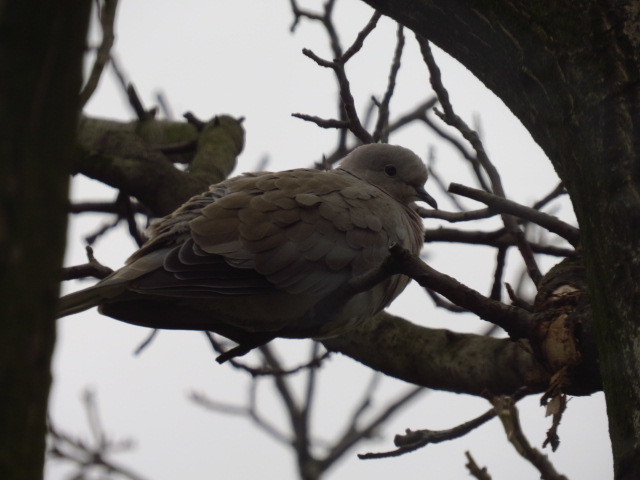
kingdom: Animalia
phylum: Chordata
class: Aves
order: Columbiformes
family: Columbidae
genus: Streptopelia
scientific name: Streptopelia decaocto
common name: Eurasian collared dove
